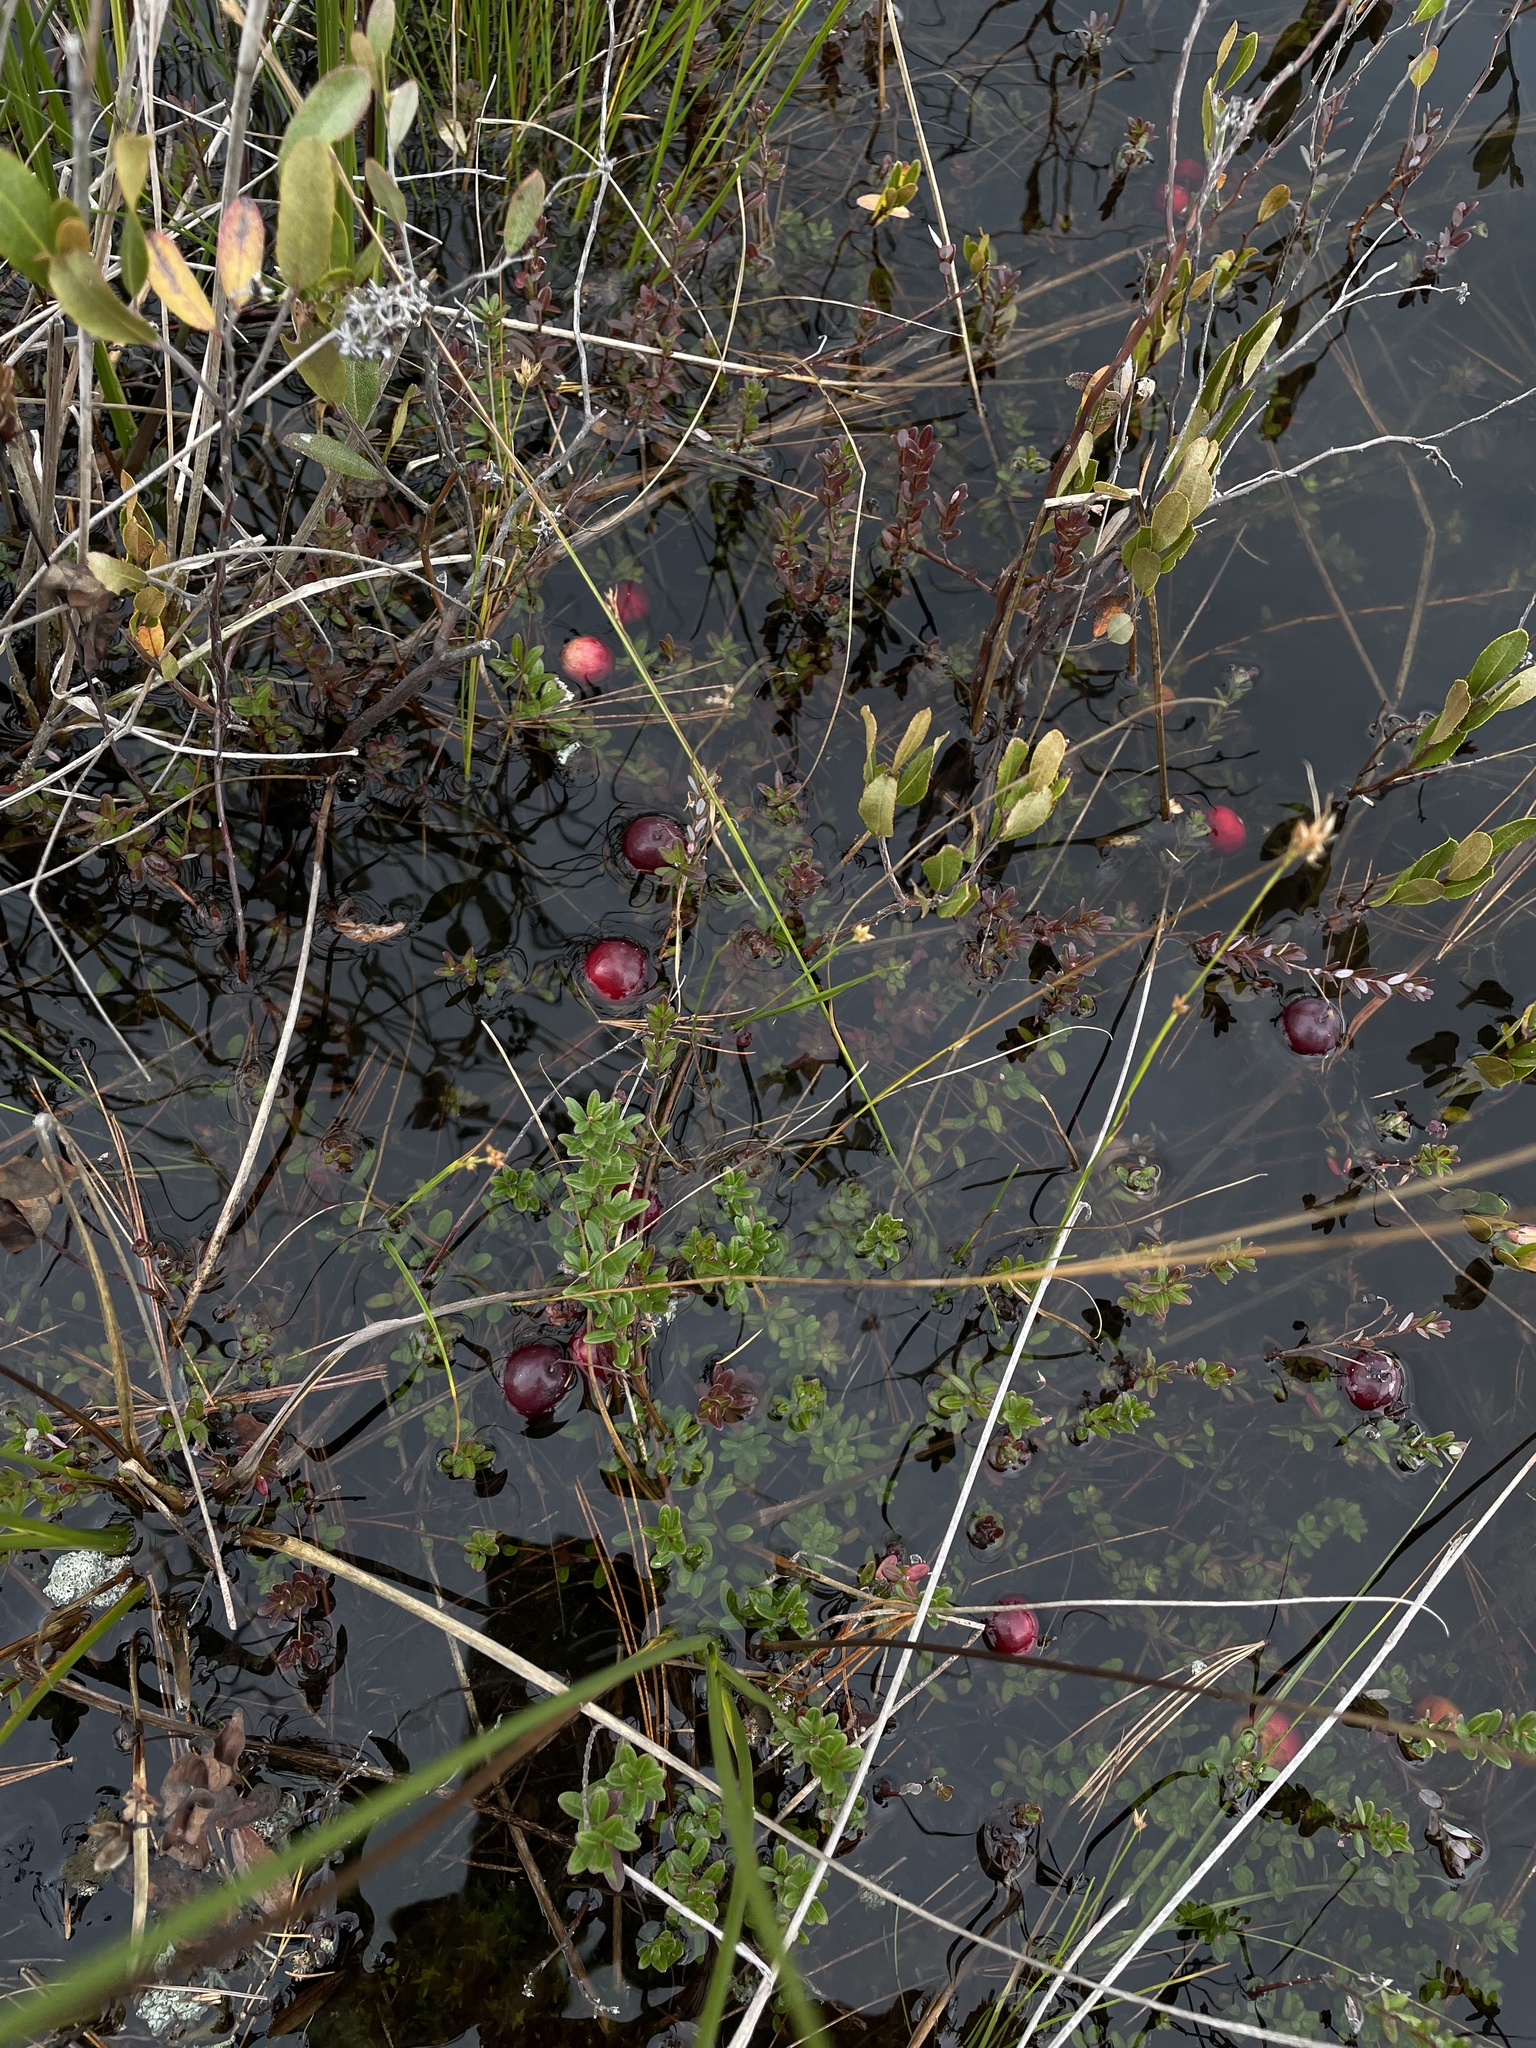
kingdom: Plantae
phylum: Tracheophyta
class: Magnoliopsida
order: Ericales
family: Ericaceae
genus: Vaccinium
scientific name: Vaccinium macrocarpon
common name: American cranberry
